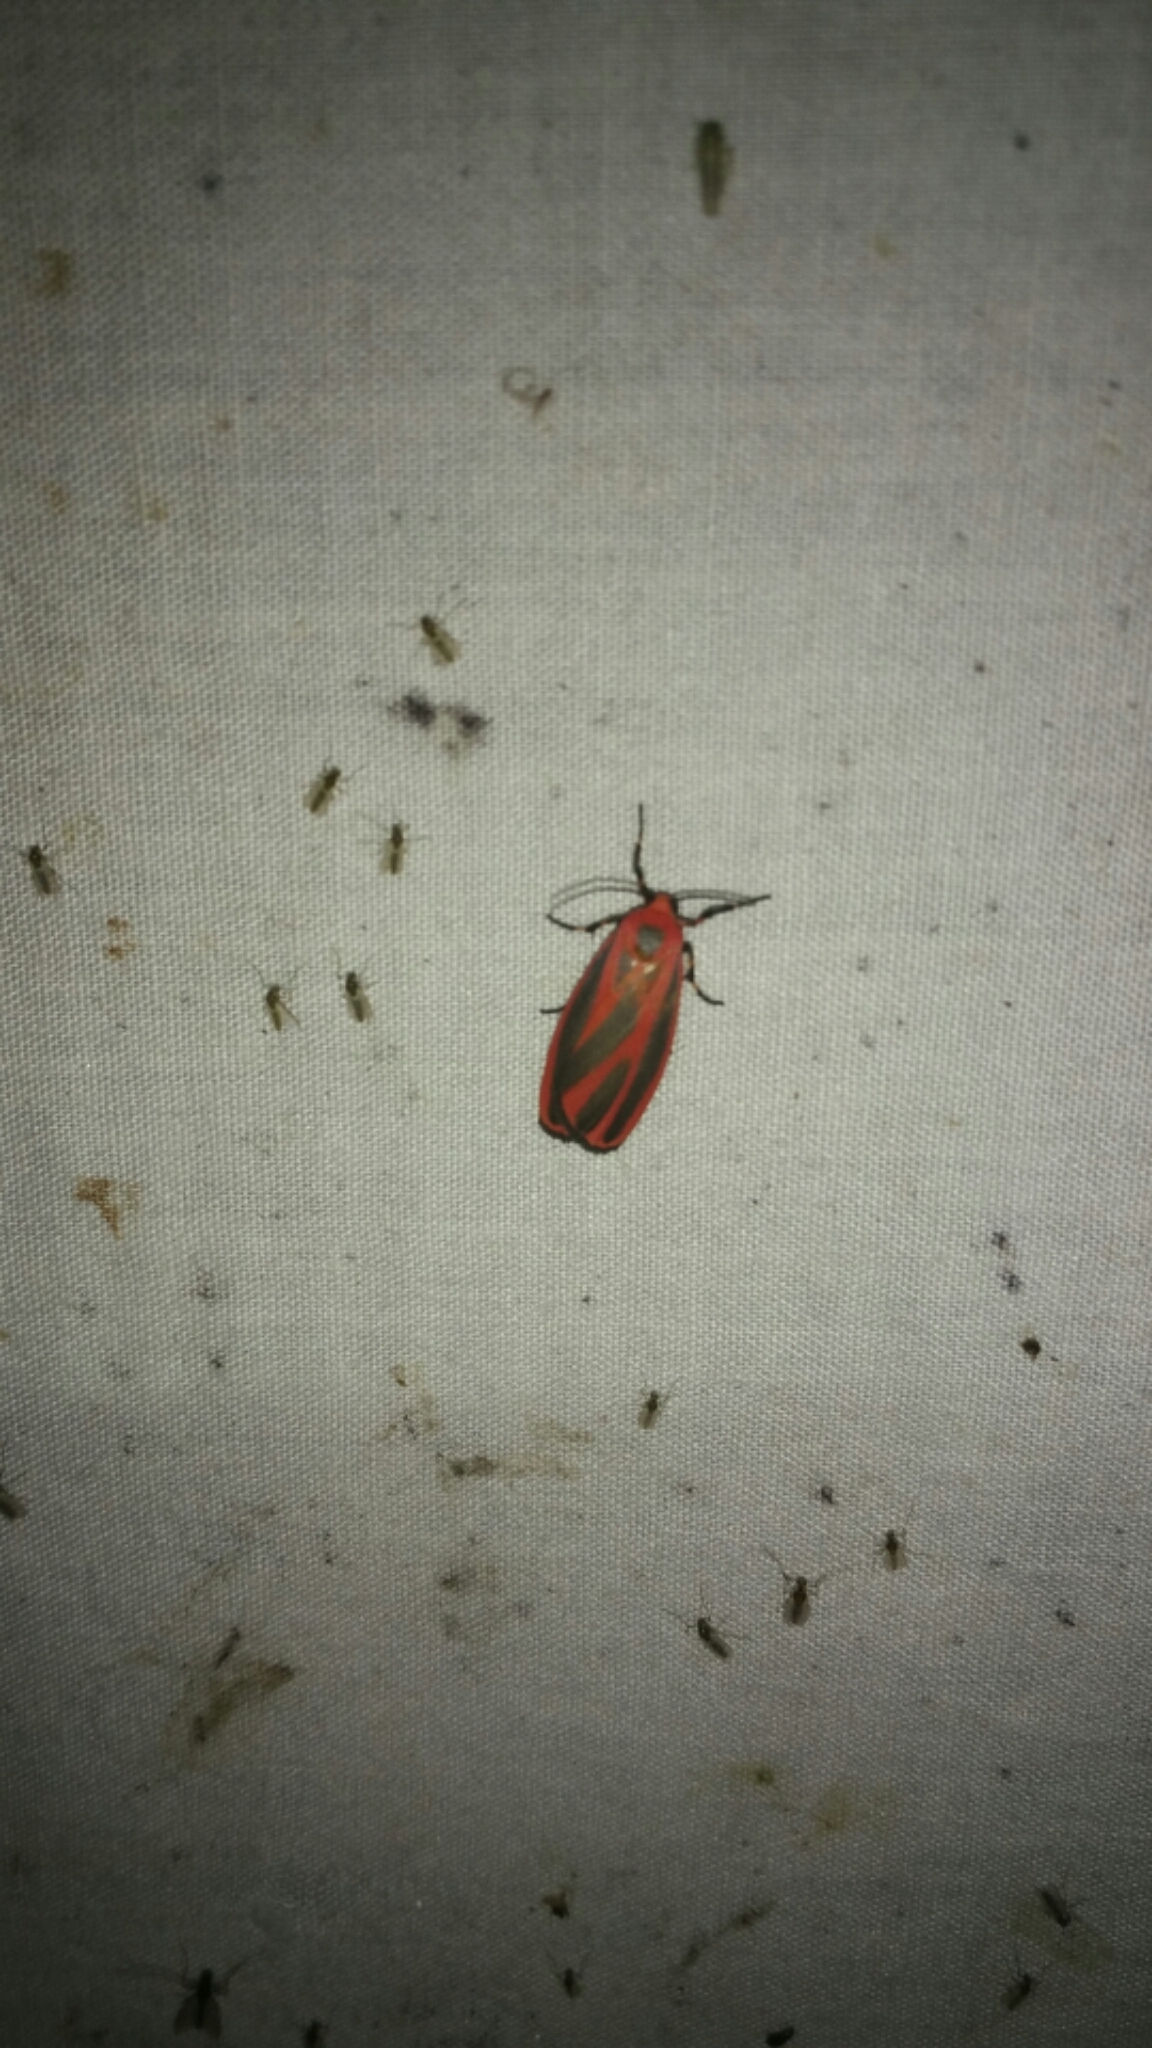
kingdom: Animalia
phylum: Arthropoda
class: Insecta
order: Lepidoptera
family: Erebidae
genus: Hypoprepia
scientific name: Hypoprepia miniata
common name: Scarlet-winged lichen moth
